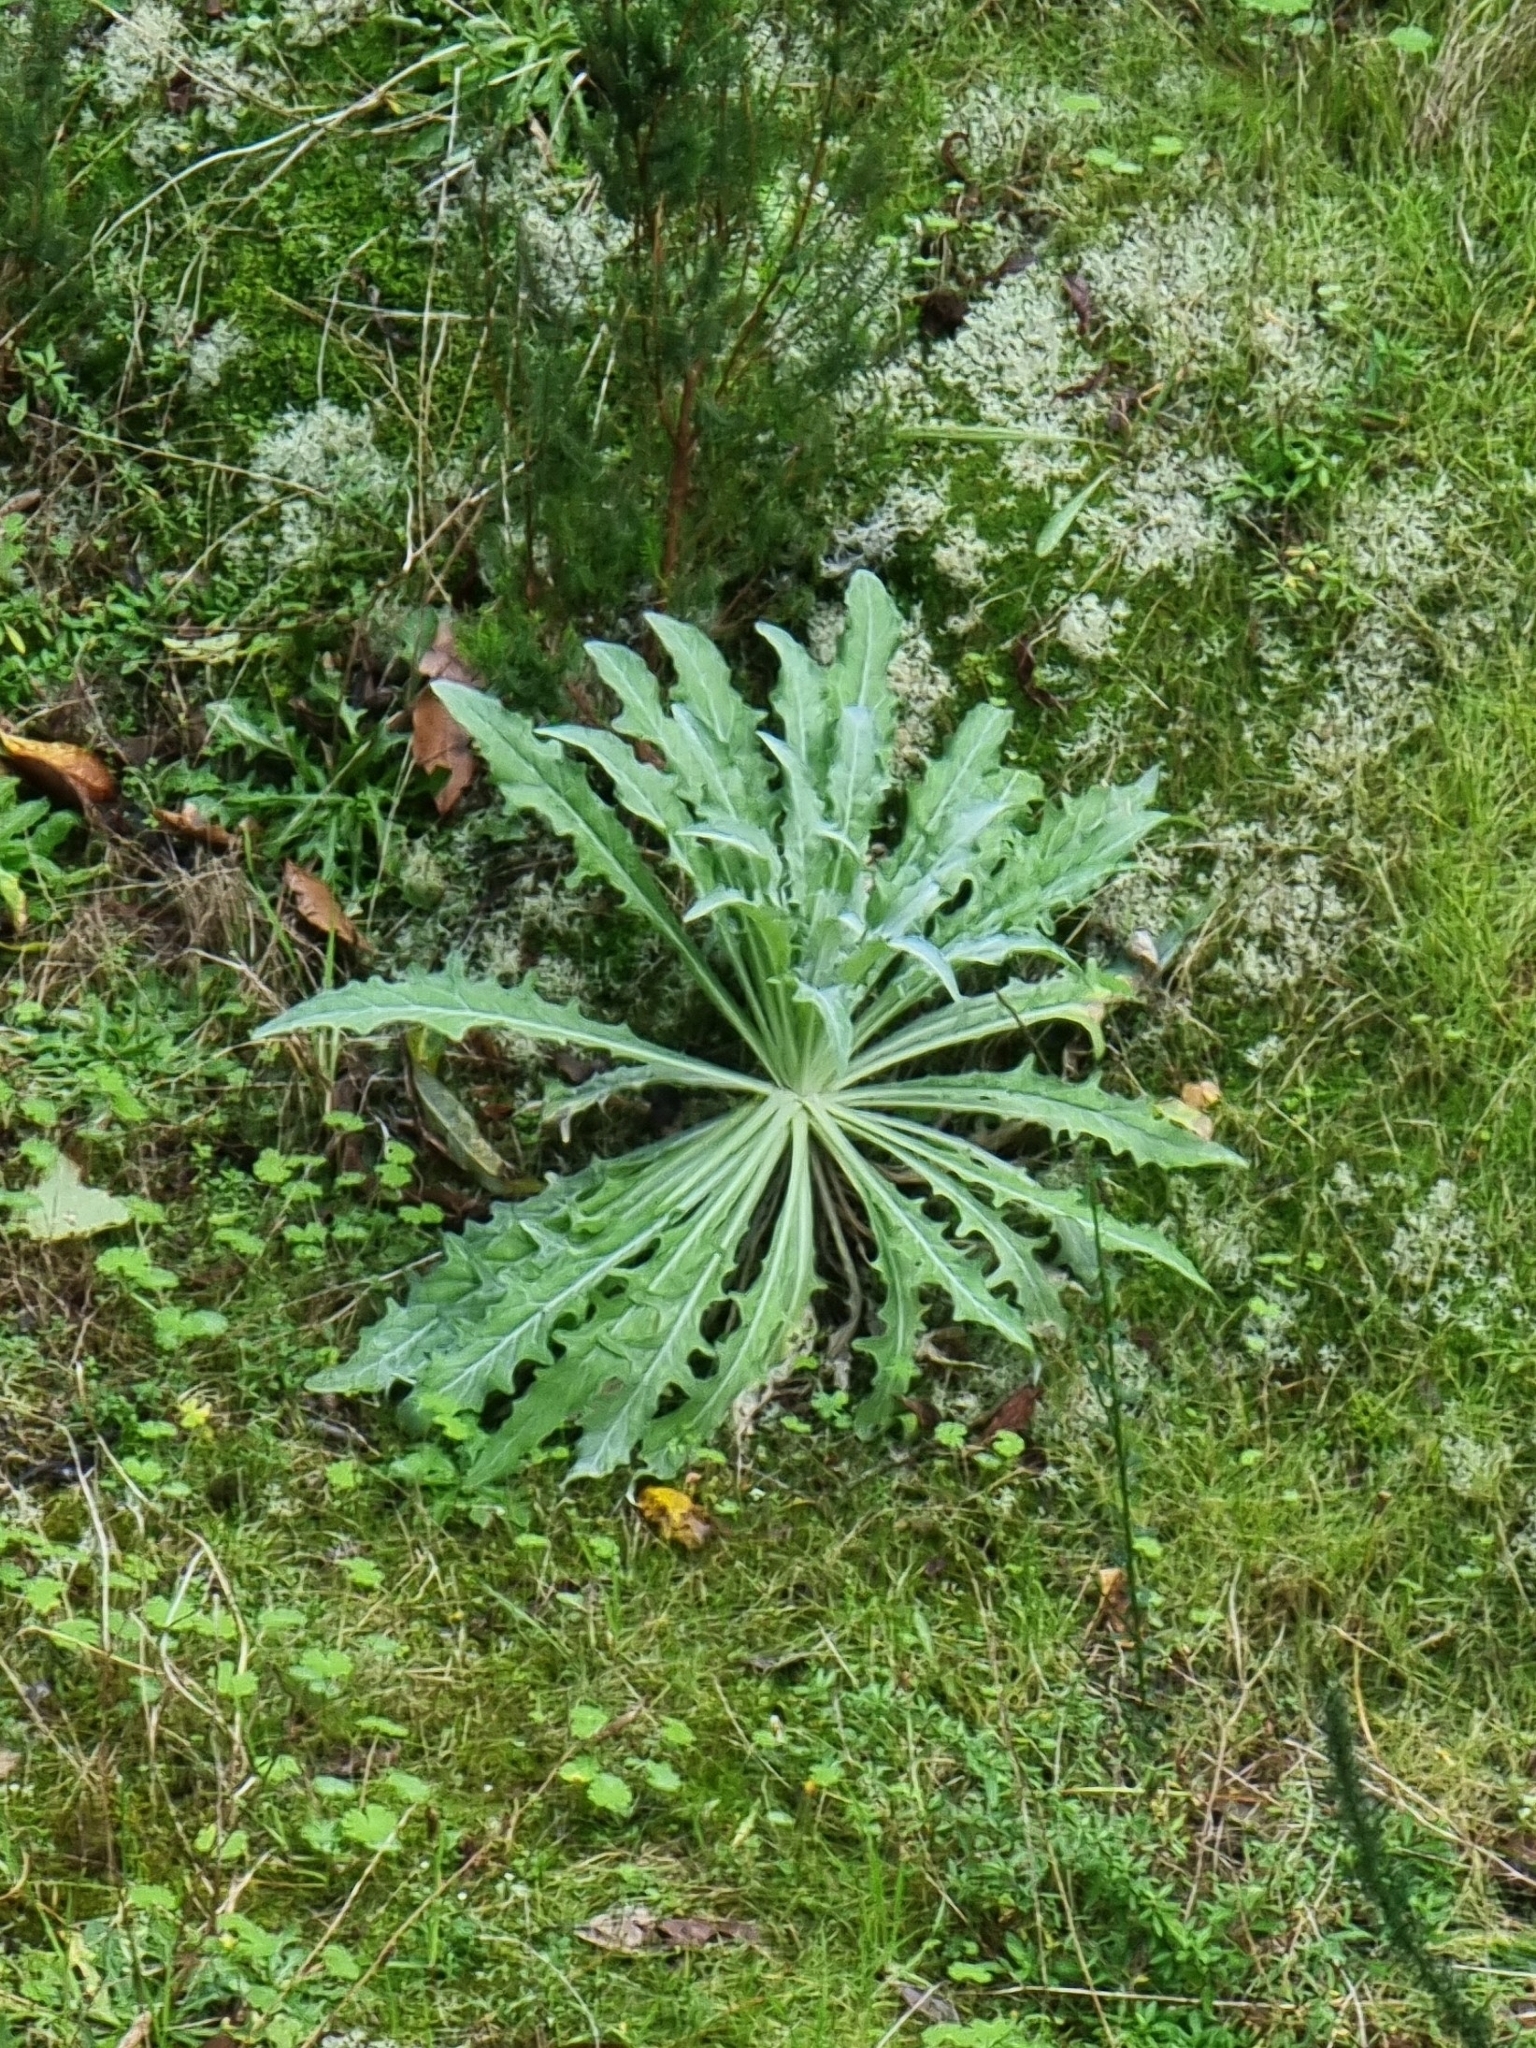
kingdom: Plantae
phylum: Tracheophyta
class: Magnoliopsida
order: Asterales
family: Asteraceae
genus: Andryala
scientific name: Andryala glandulosa
